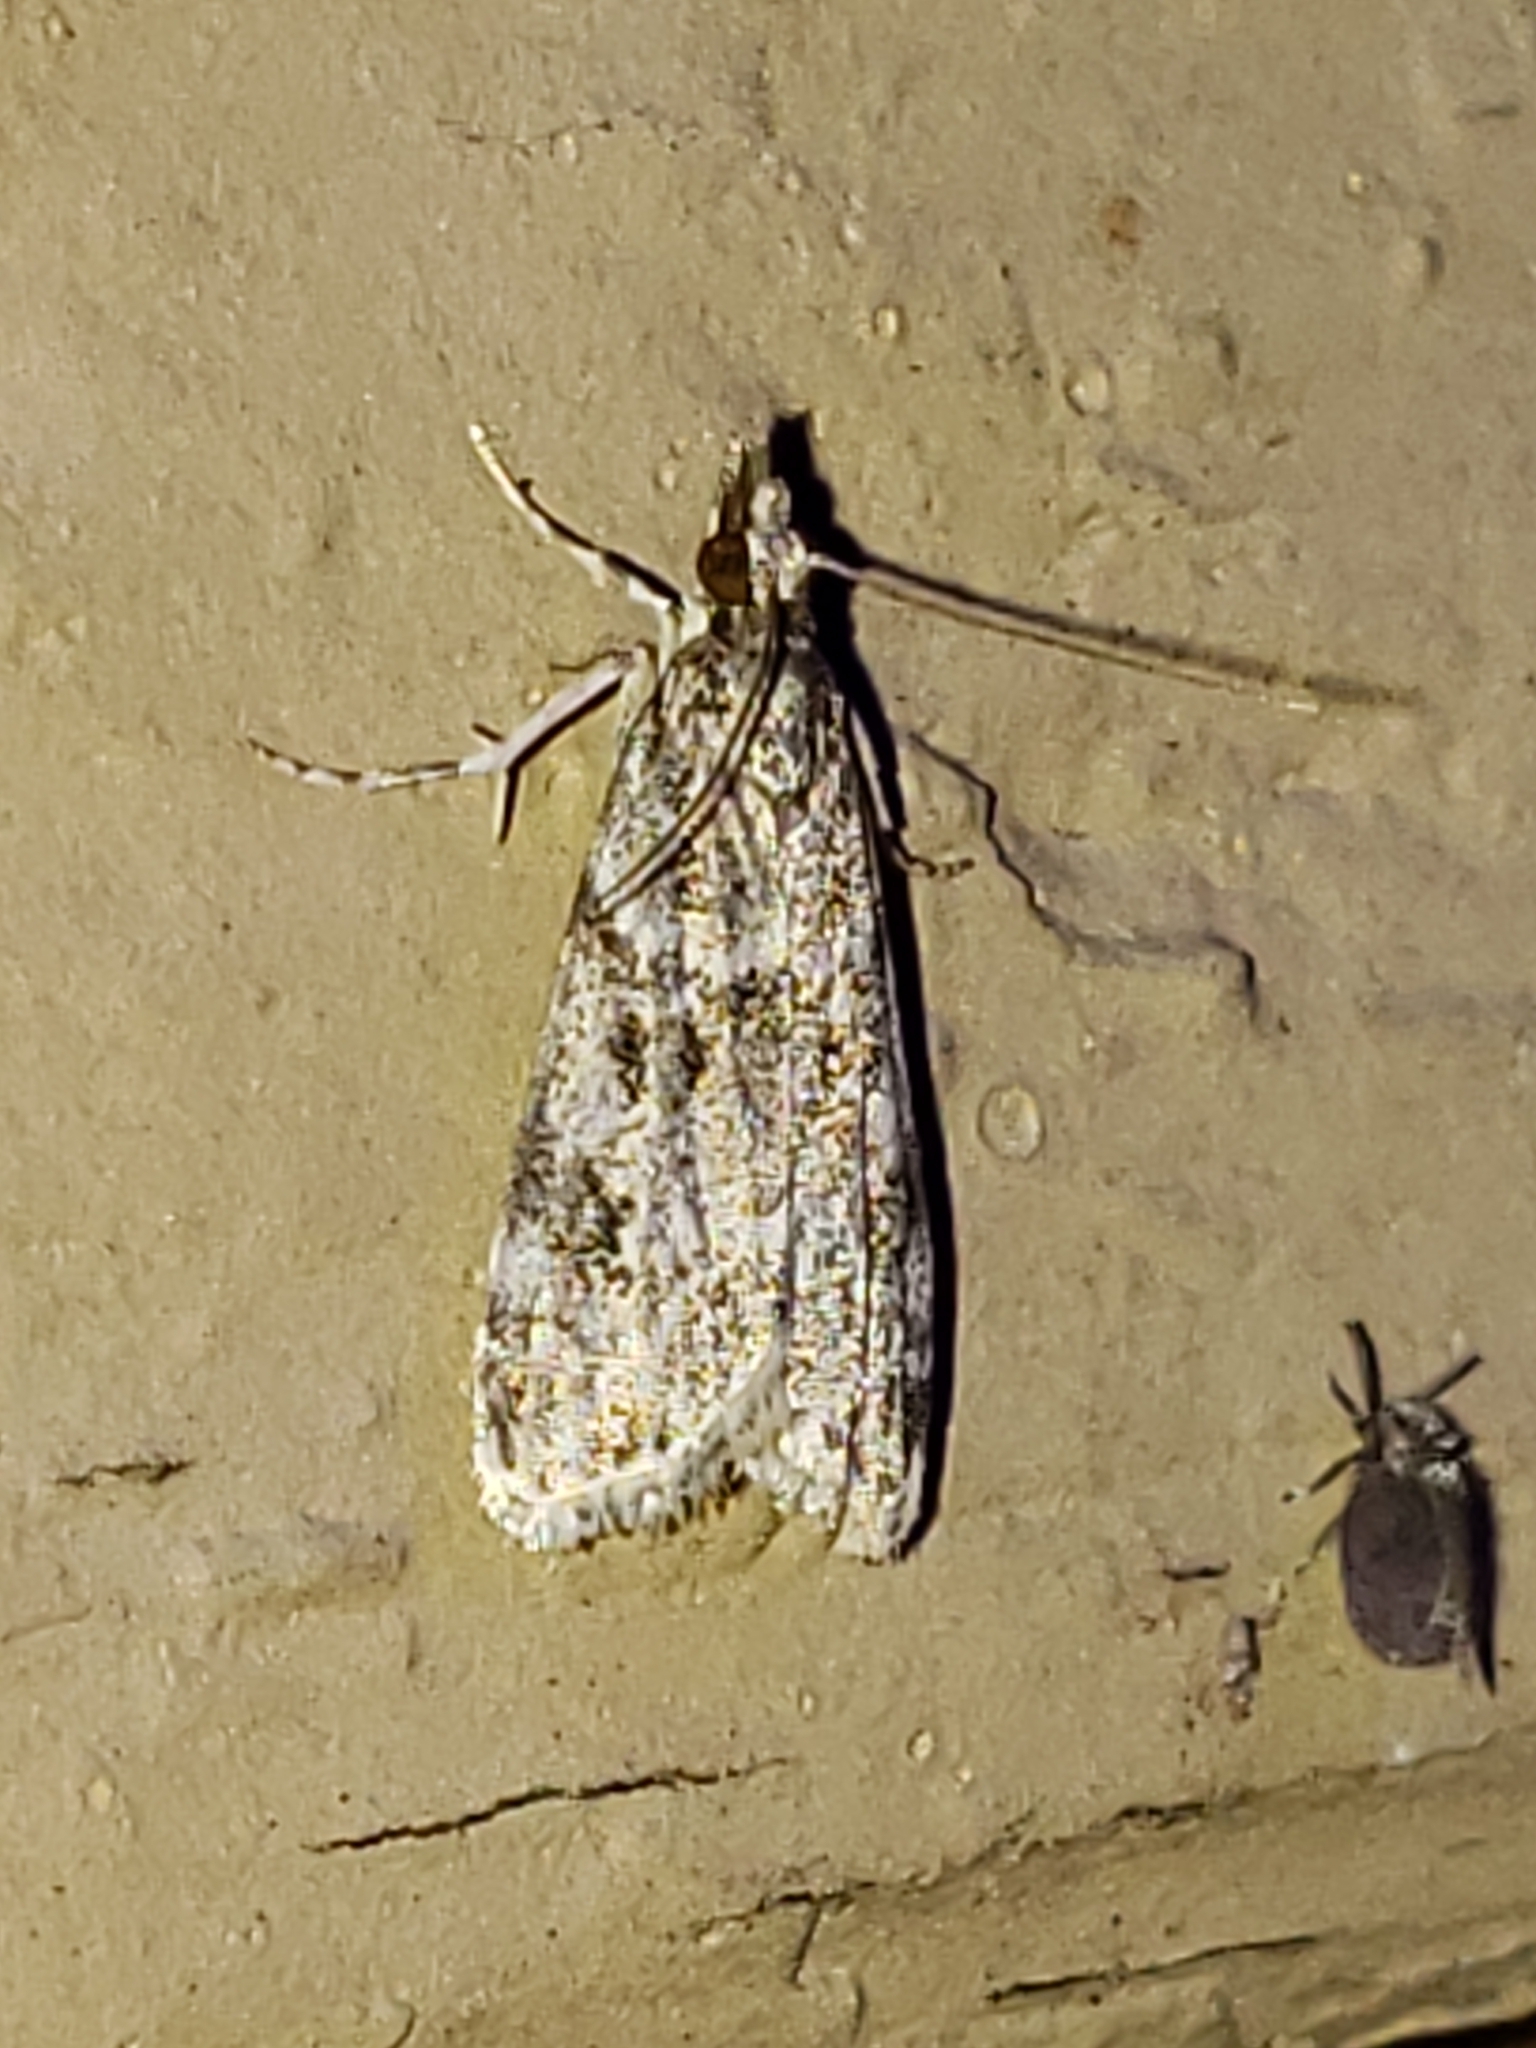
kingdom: Animalia
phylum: Arthropoda
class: Insecta
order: Lepidoptera
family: Crambidae
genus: Eudonia
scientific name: Eudonia heterosalis
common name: Mcdunnough's eudonia
